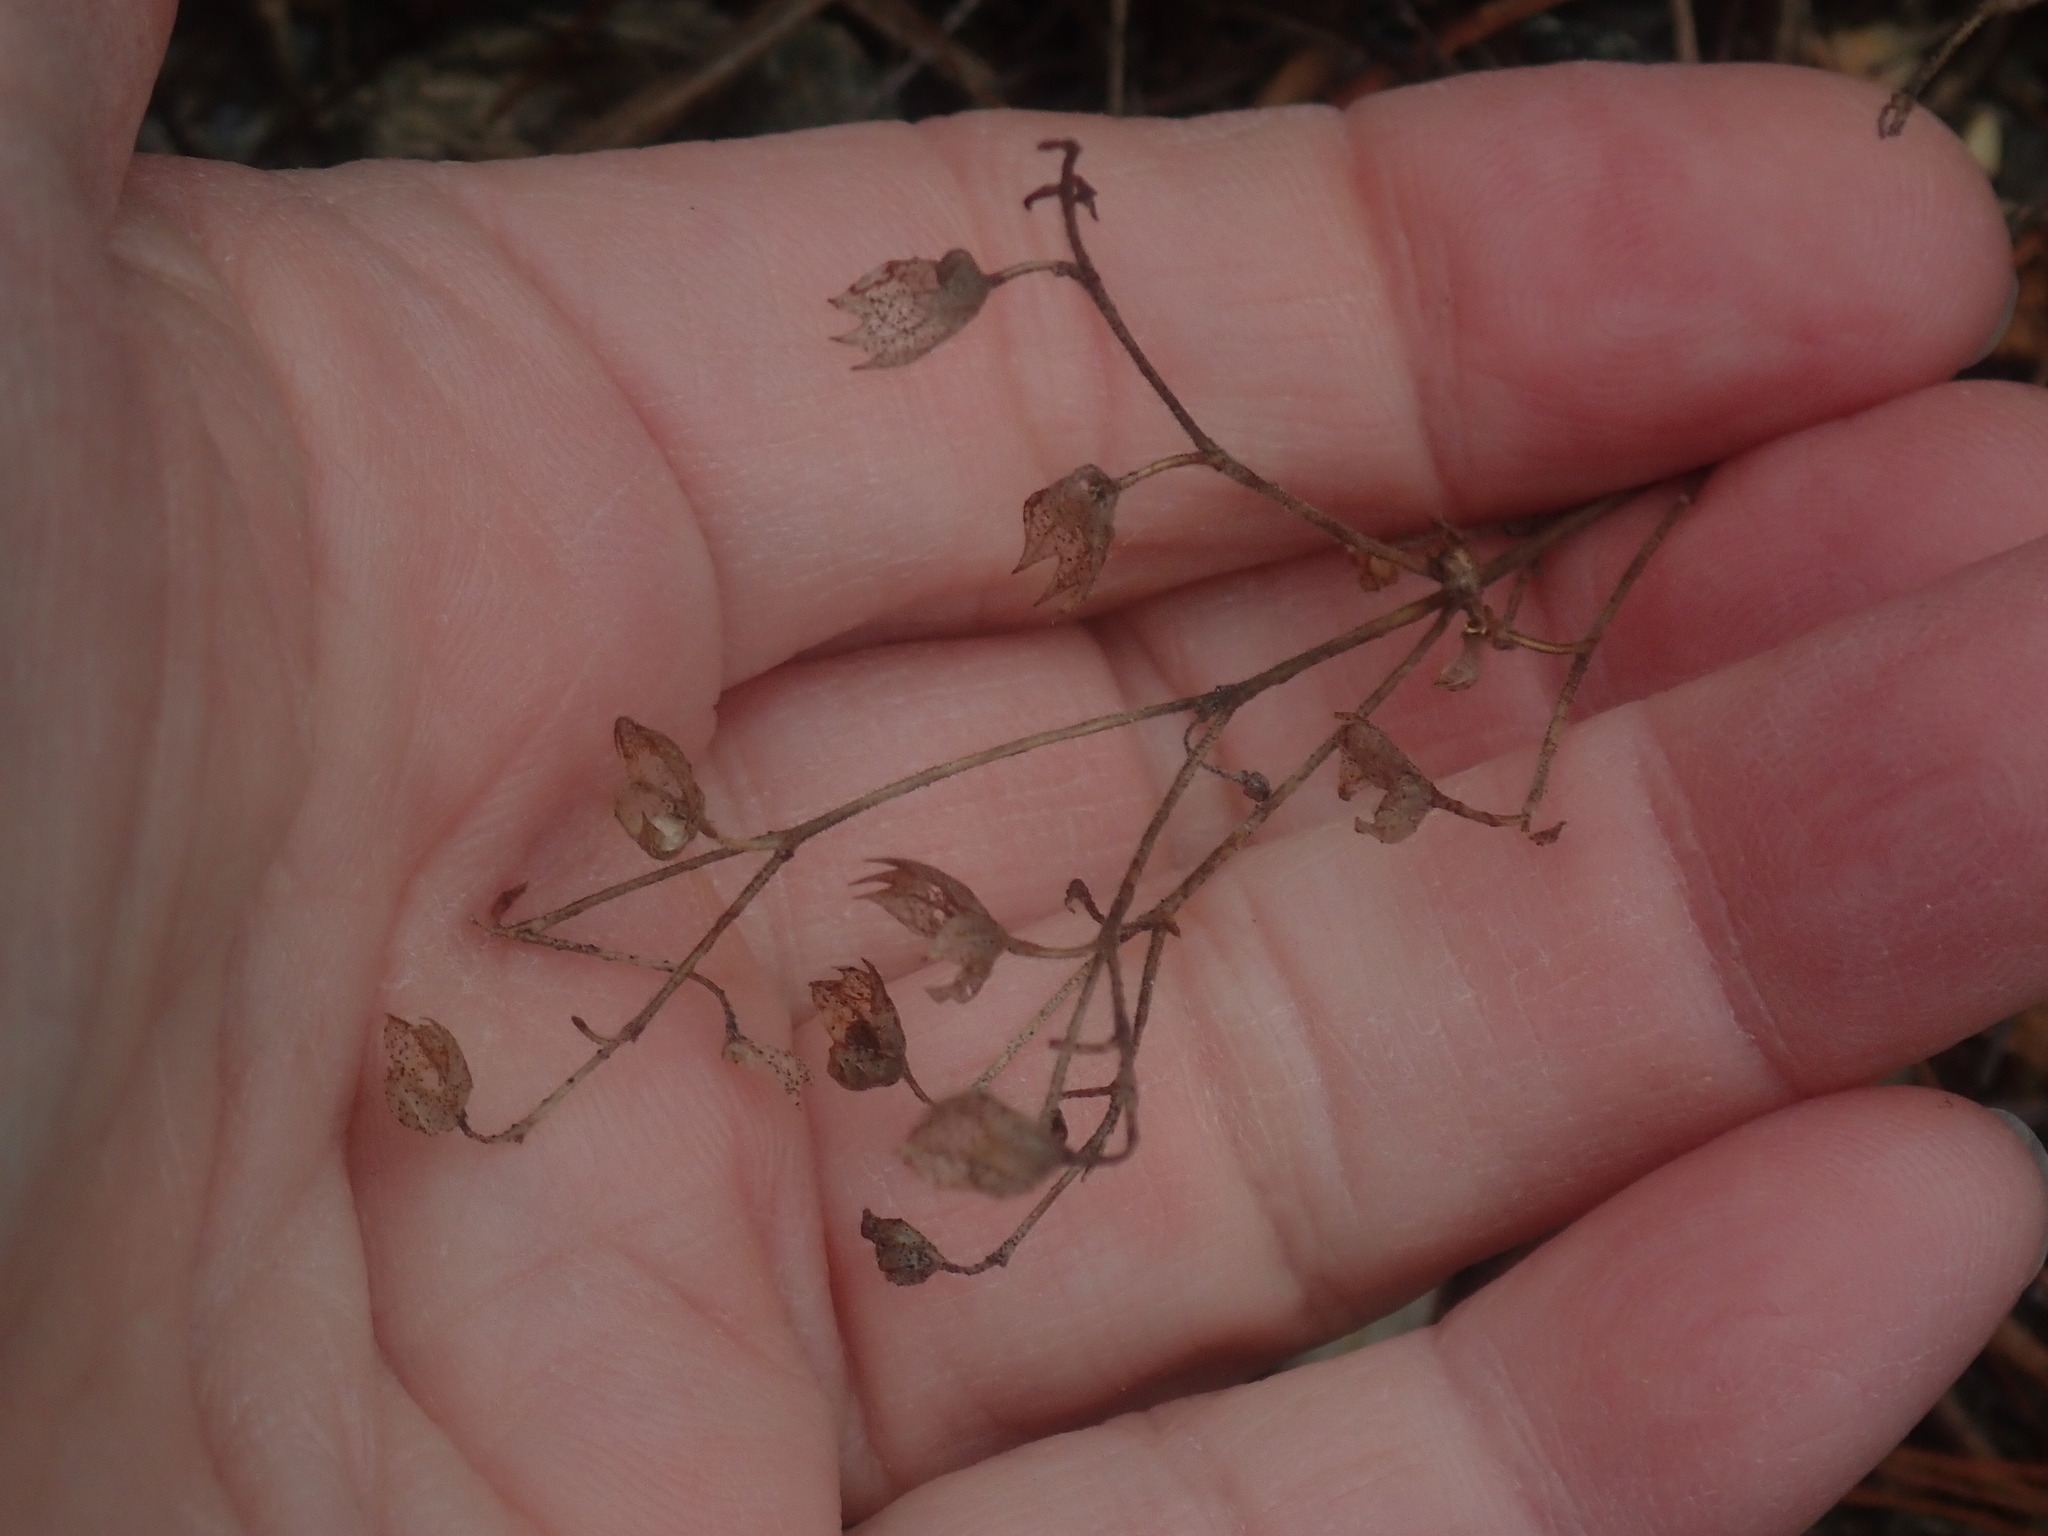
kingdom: Plantae
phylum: Tracheophyta
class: Magnoliopsida
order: Lamiales
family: Lamiaceae
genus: Trichostema
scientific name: Trichostema dichotomum
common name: Bastard pennyroyal
